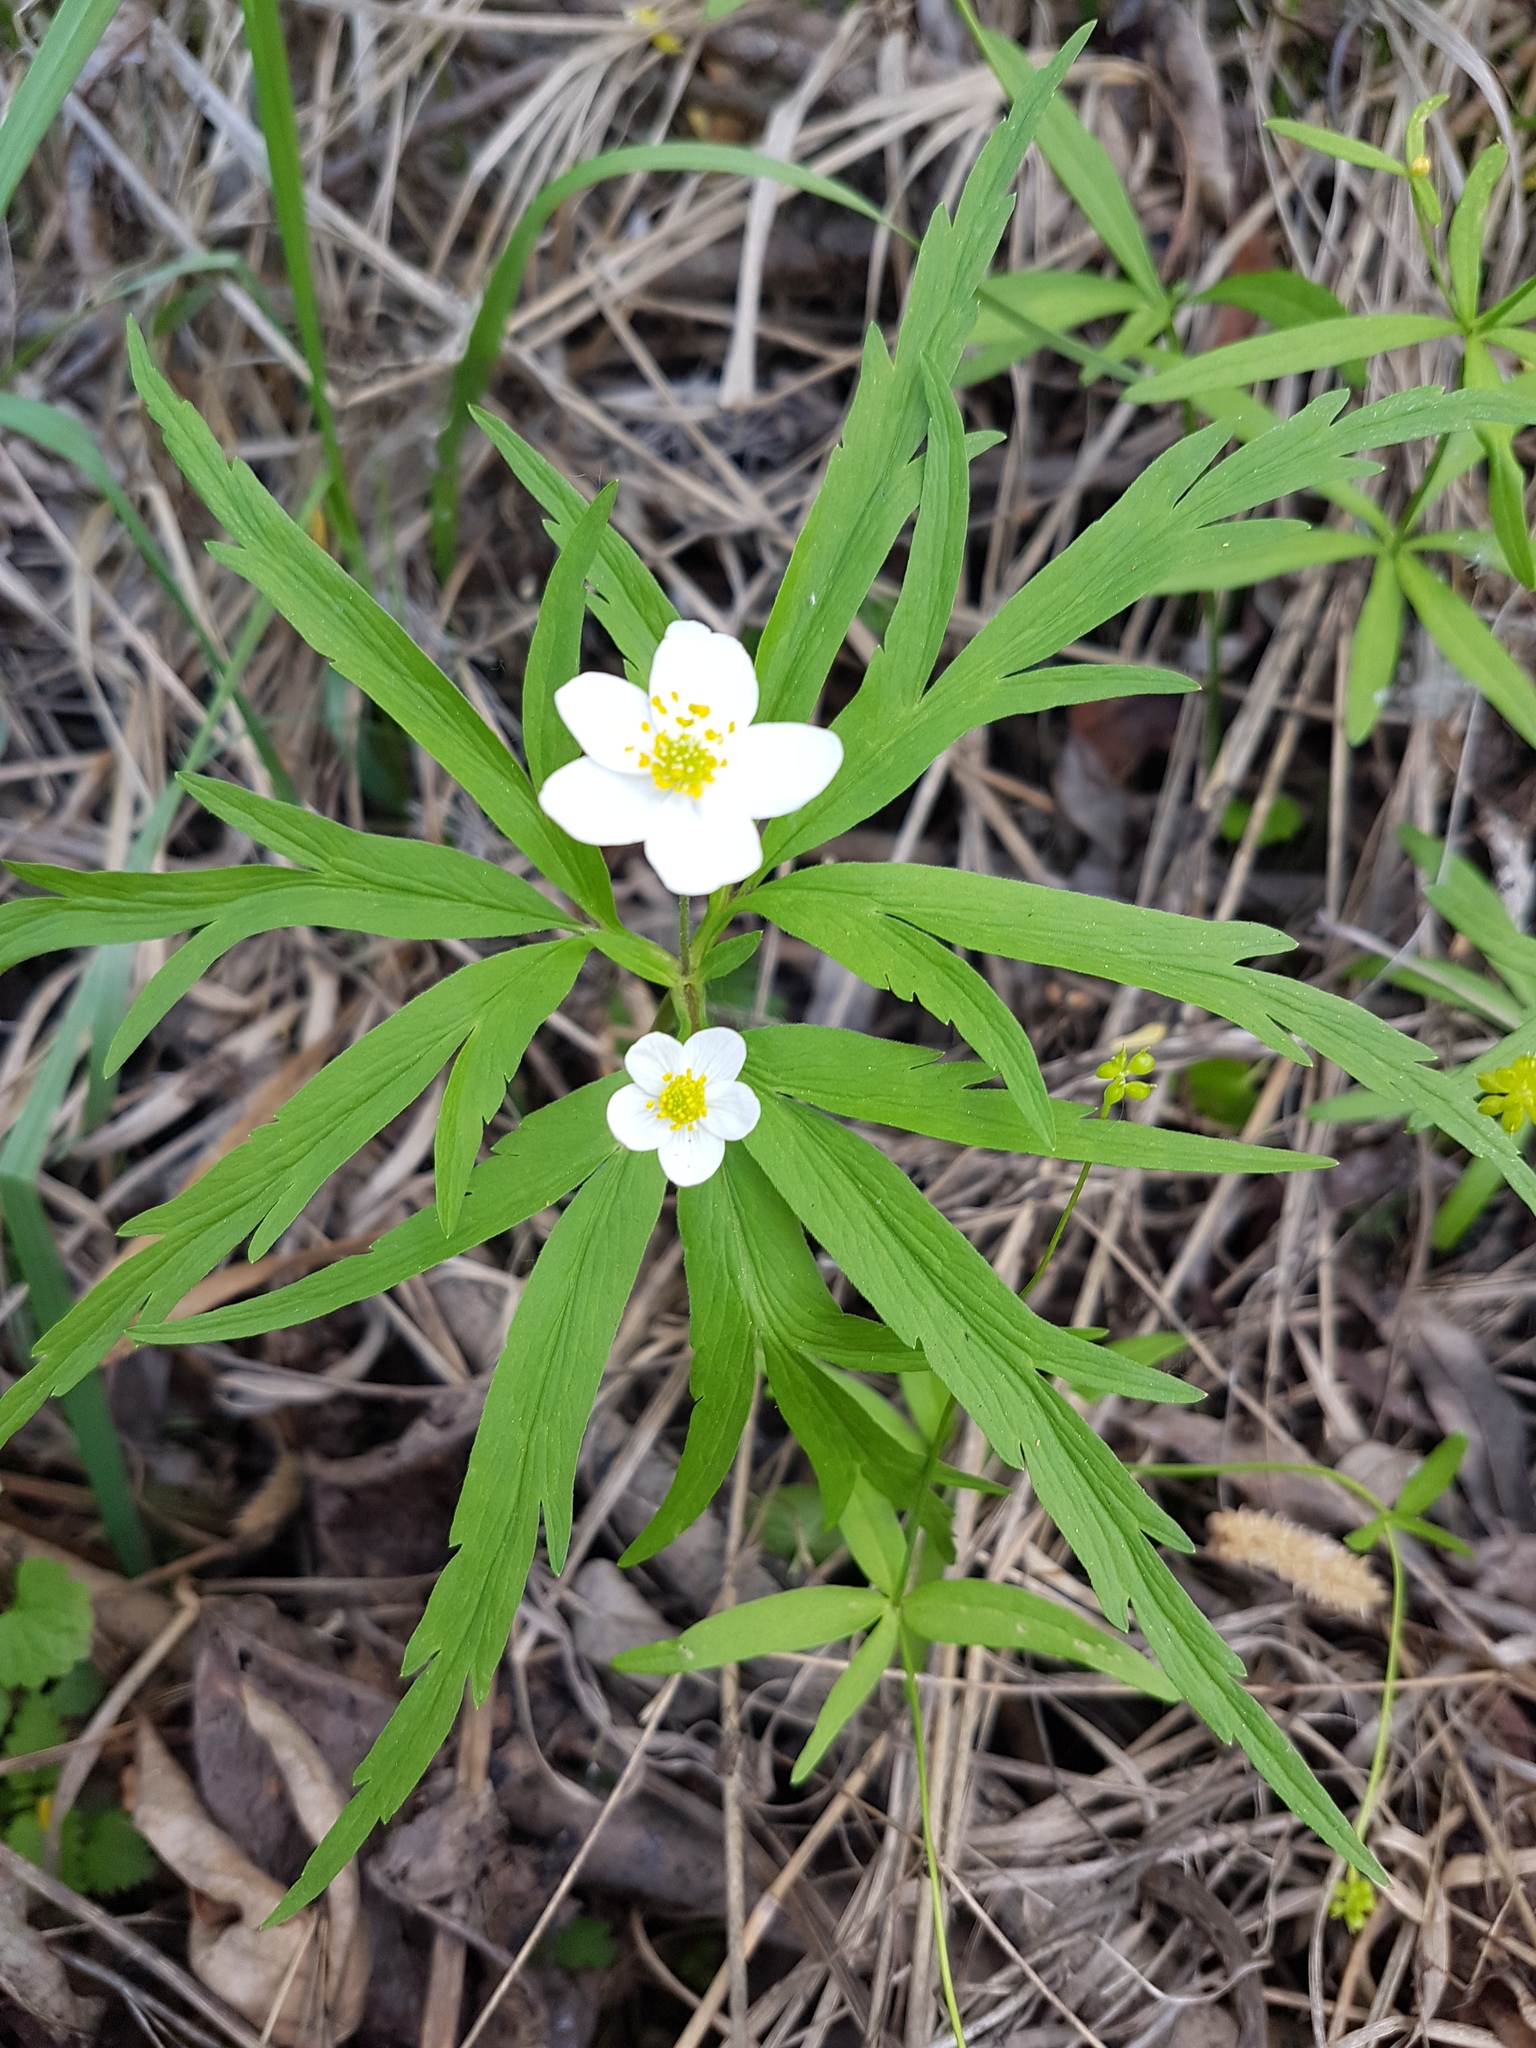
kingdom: Plantae
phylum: Tracheophyta
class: Magnoliopsida
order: Ranunculales
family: Ranunculaceae
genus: Anemone
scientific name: Anemone caerulea
